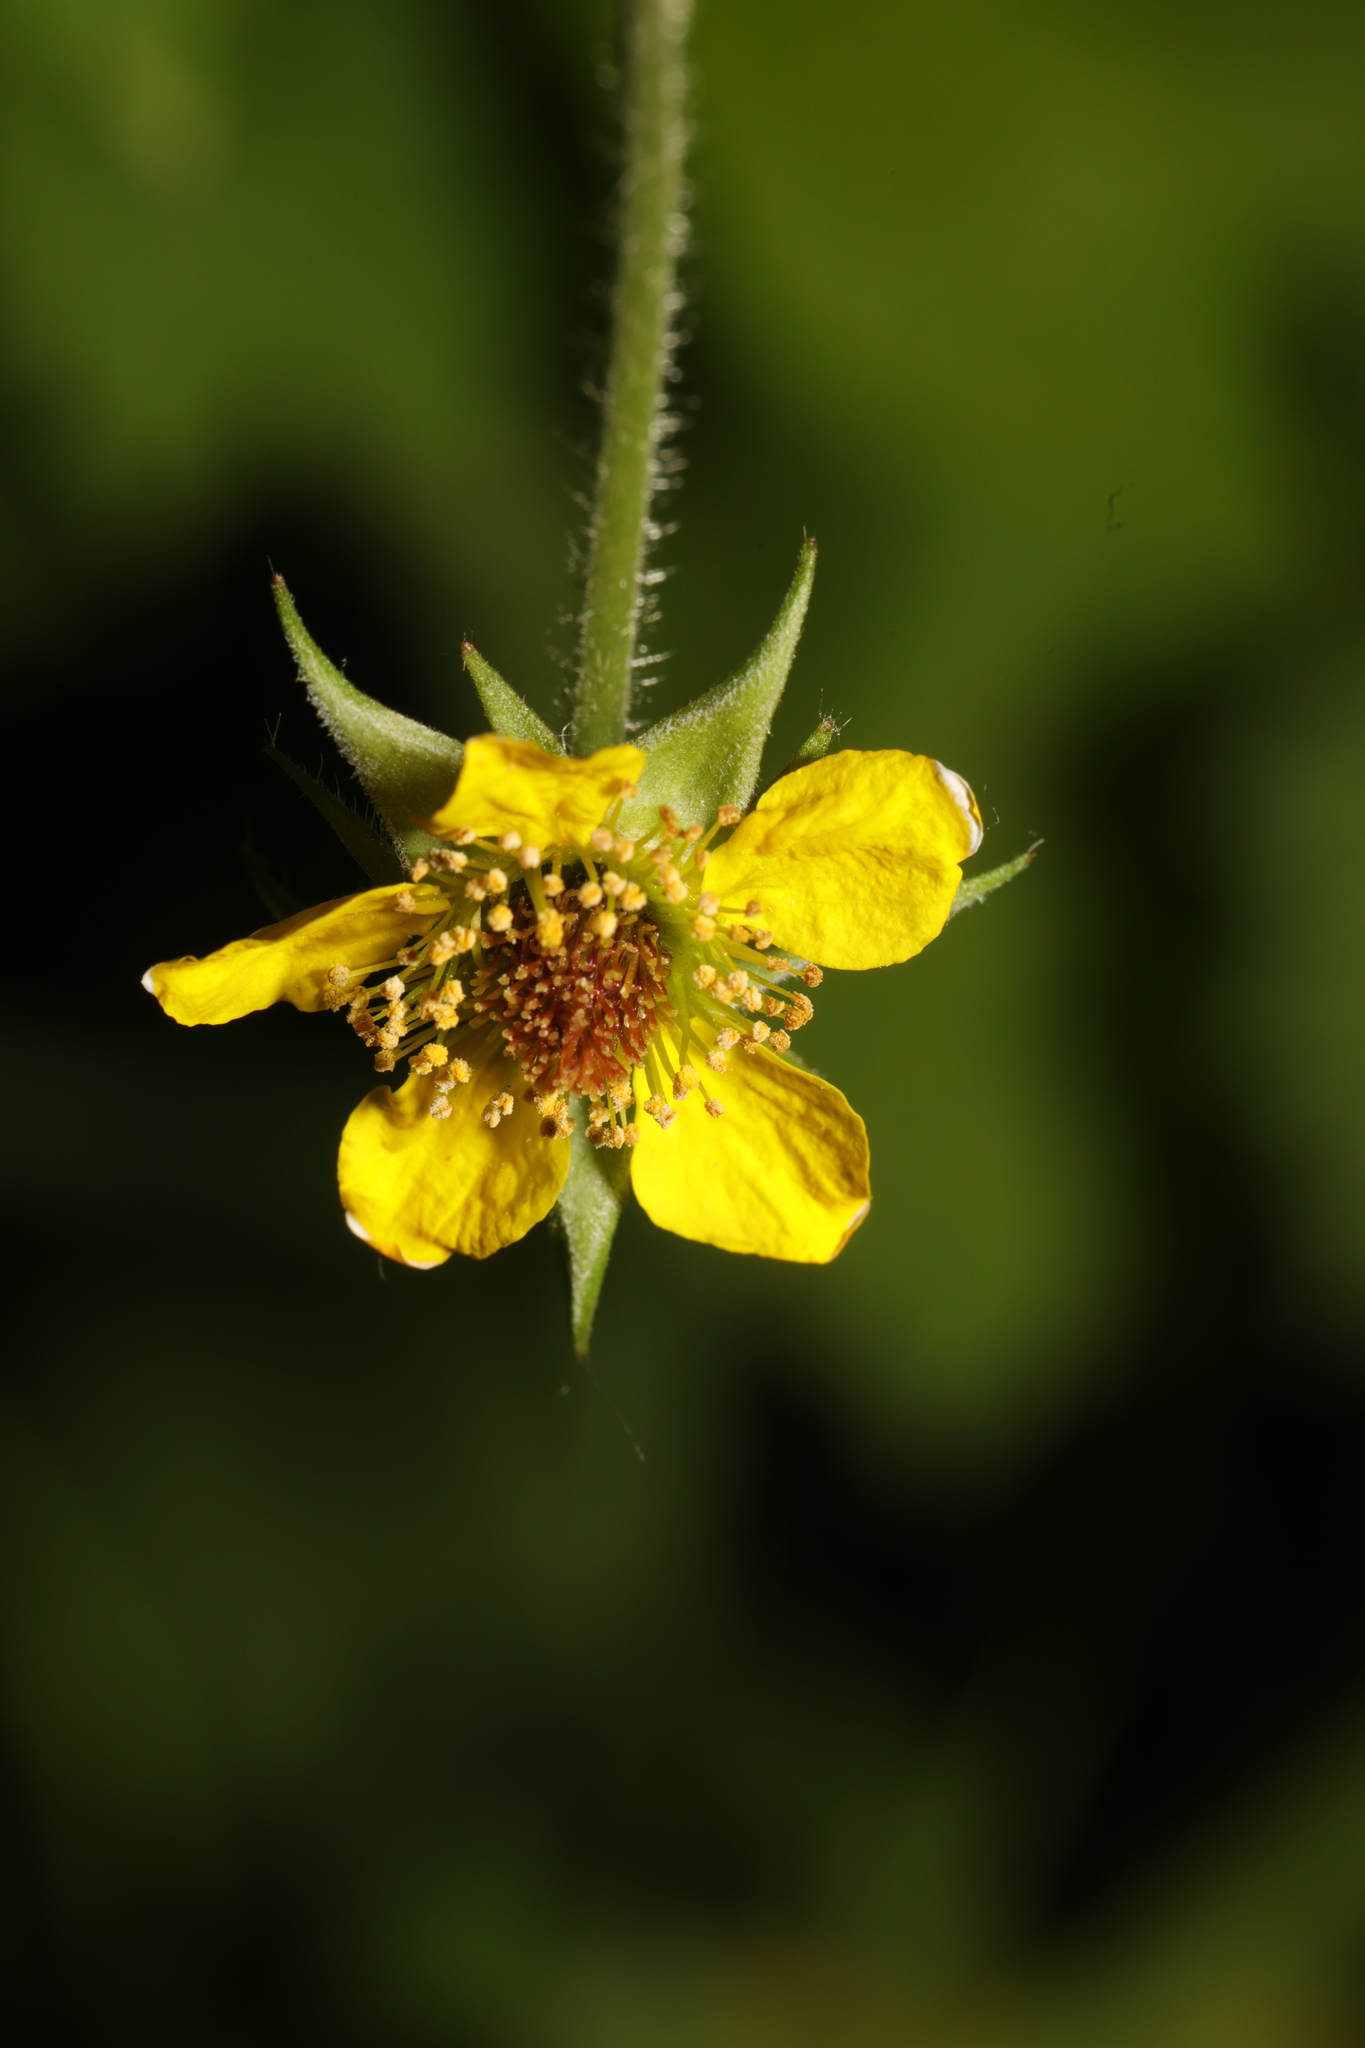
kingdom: Plantae
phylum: Tracheophyta
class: Magnoliopsida
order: Rosales
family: Rosaceae
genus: Geum
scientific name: Geum urbanum
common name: Wood avens
